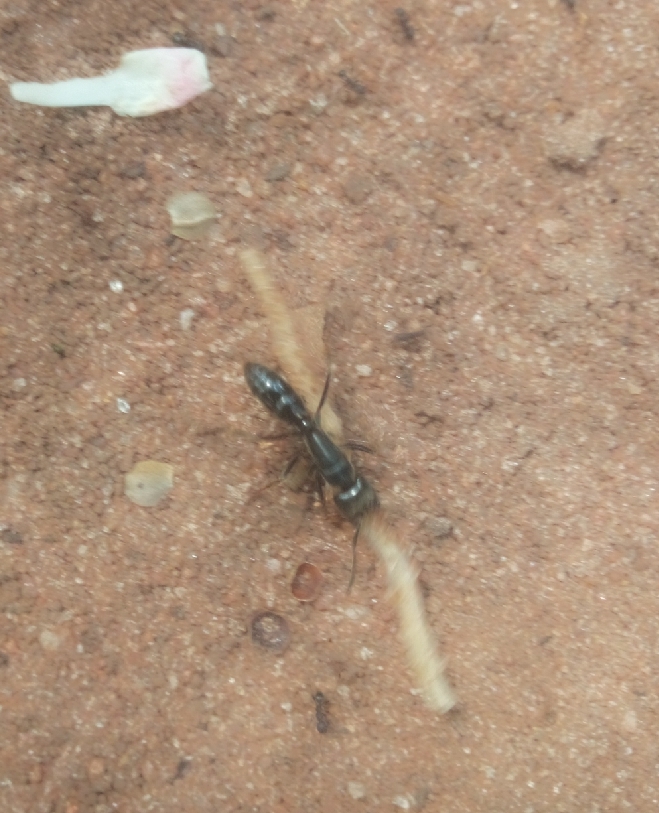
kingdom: Animalia
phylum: Arthropoda
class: Insecta
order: Hymenoptera
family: Formicidae
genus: Paltothyreus
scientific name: Paltothyreus tarsatus
